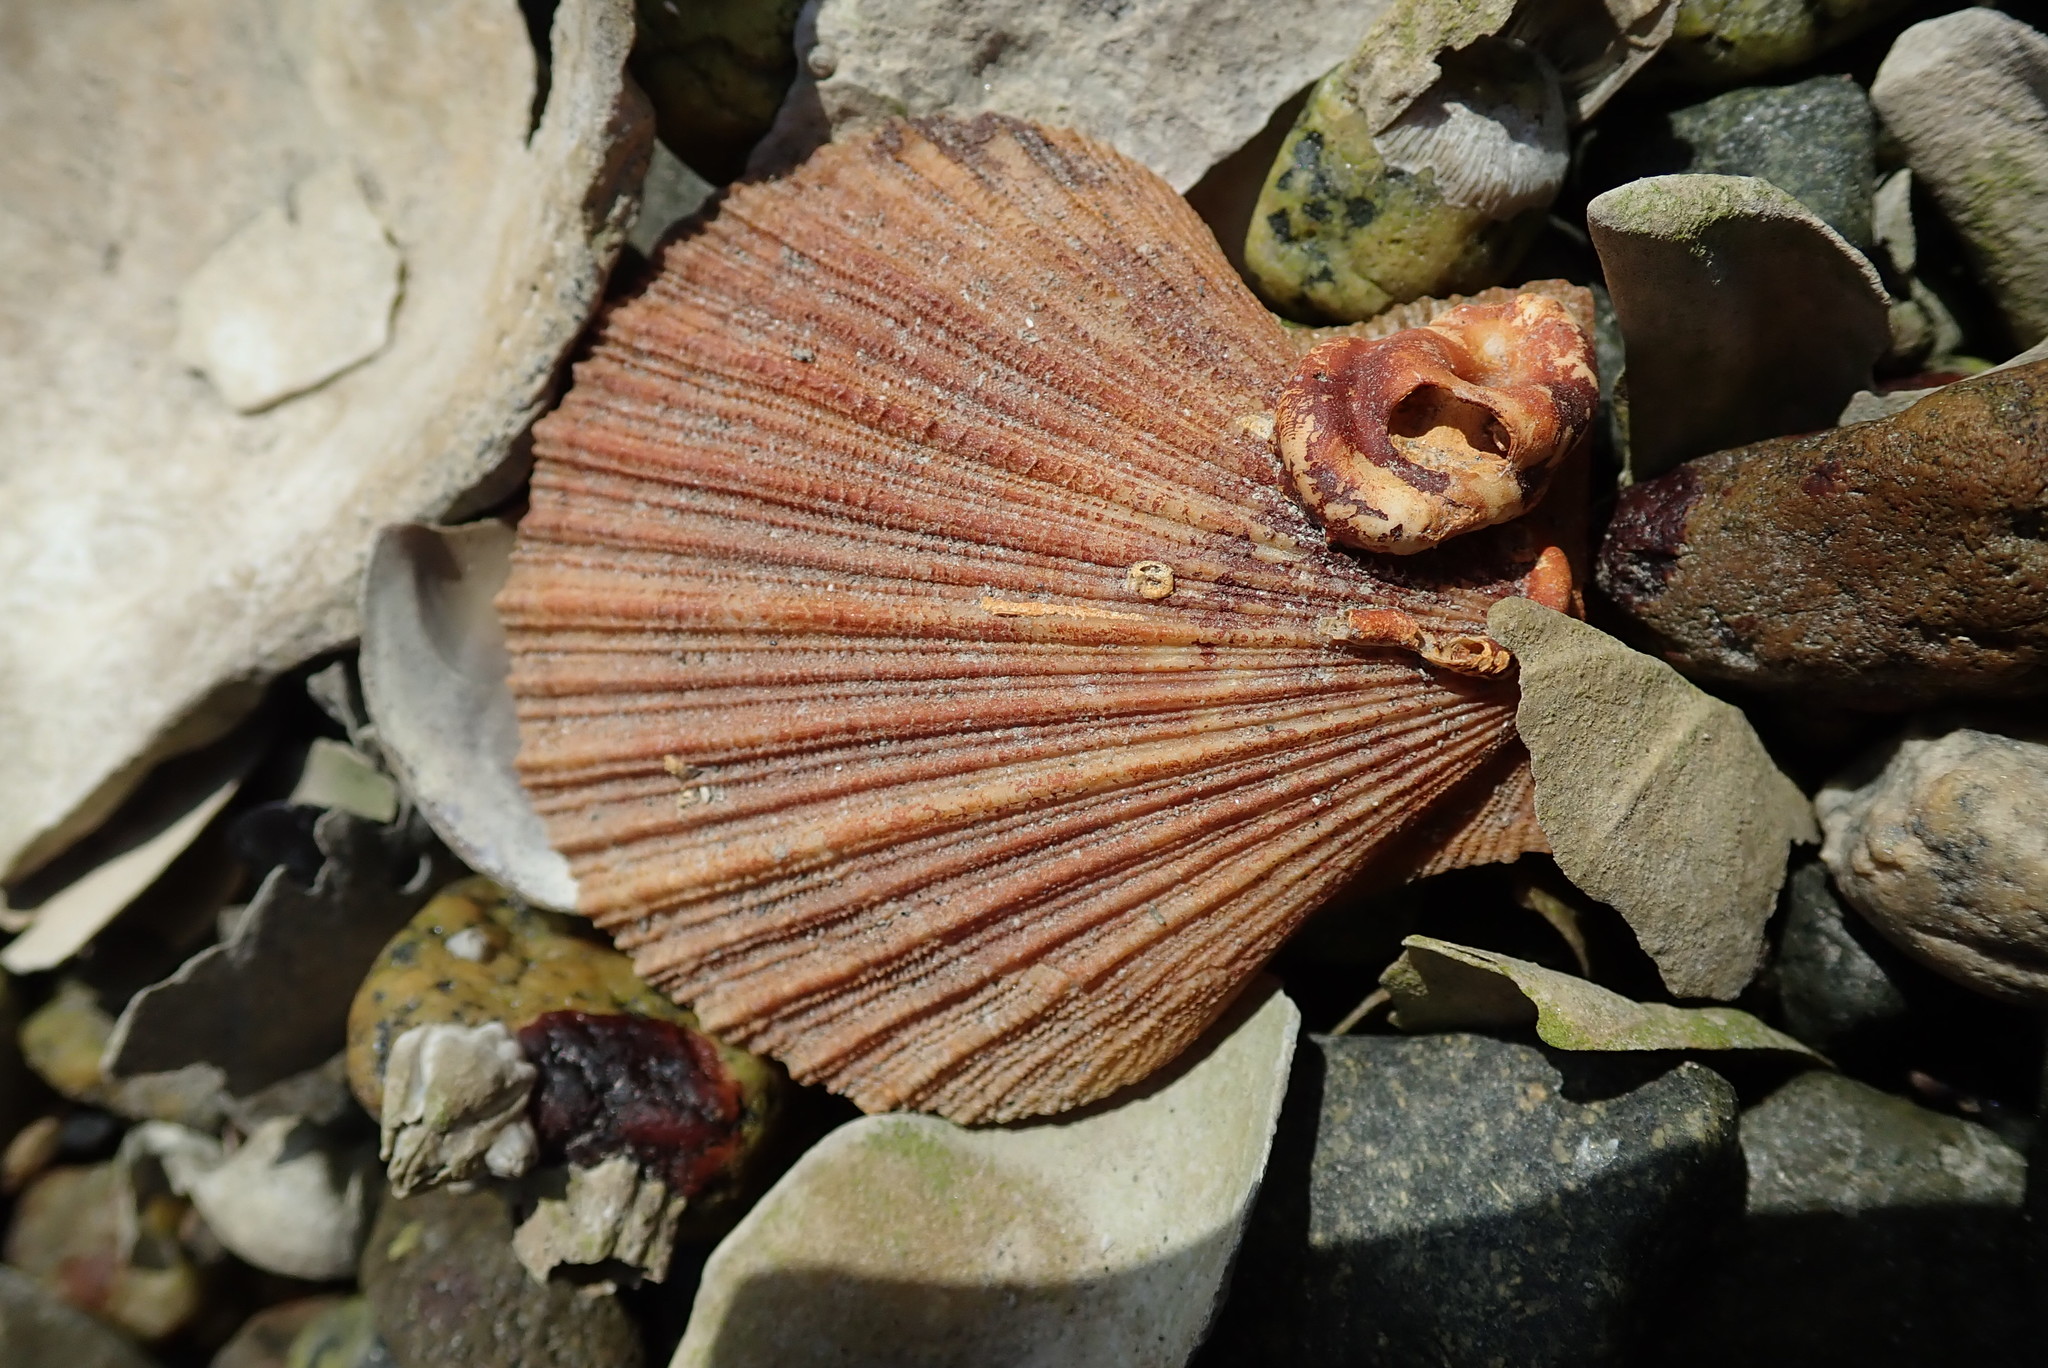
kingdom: Animalia
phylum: Mollusca
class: Bivalvia
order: Pectinida
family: Pectinidae
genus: Chlamys
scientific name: Chlamys hastata
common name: Spear scallop
